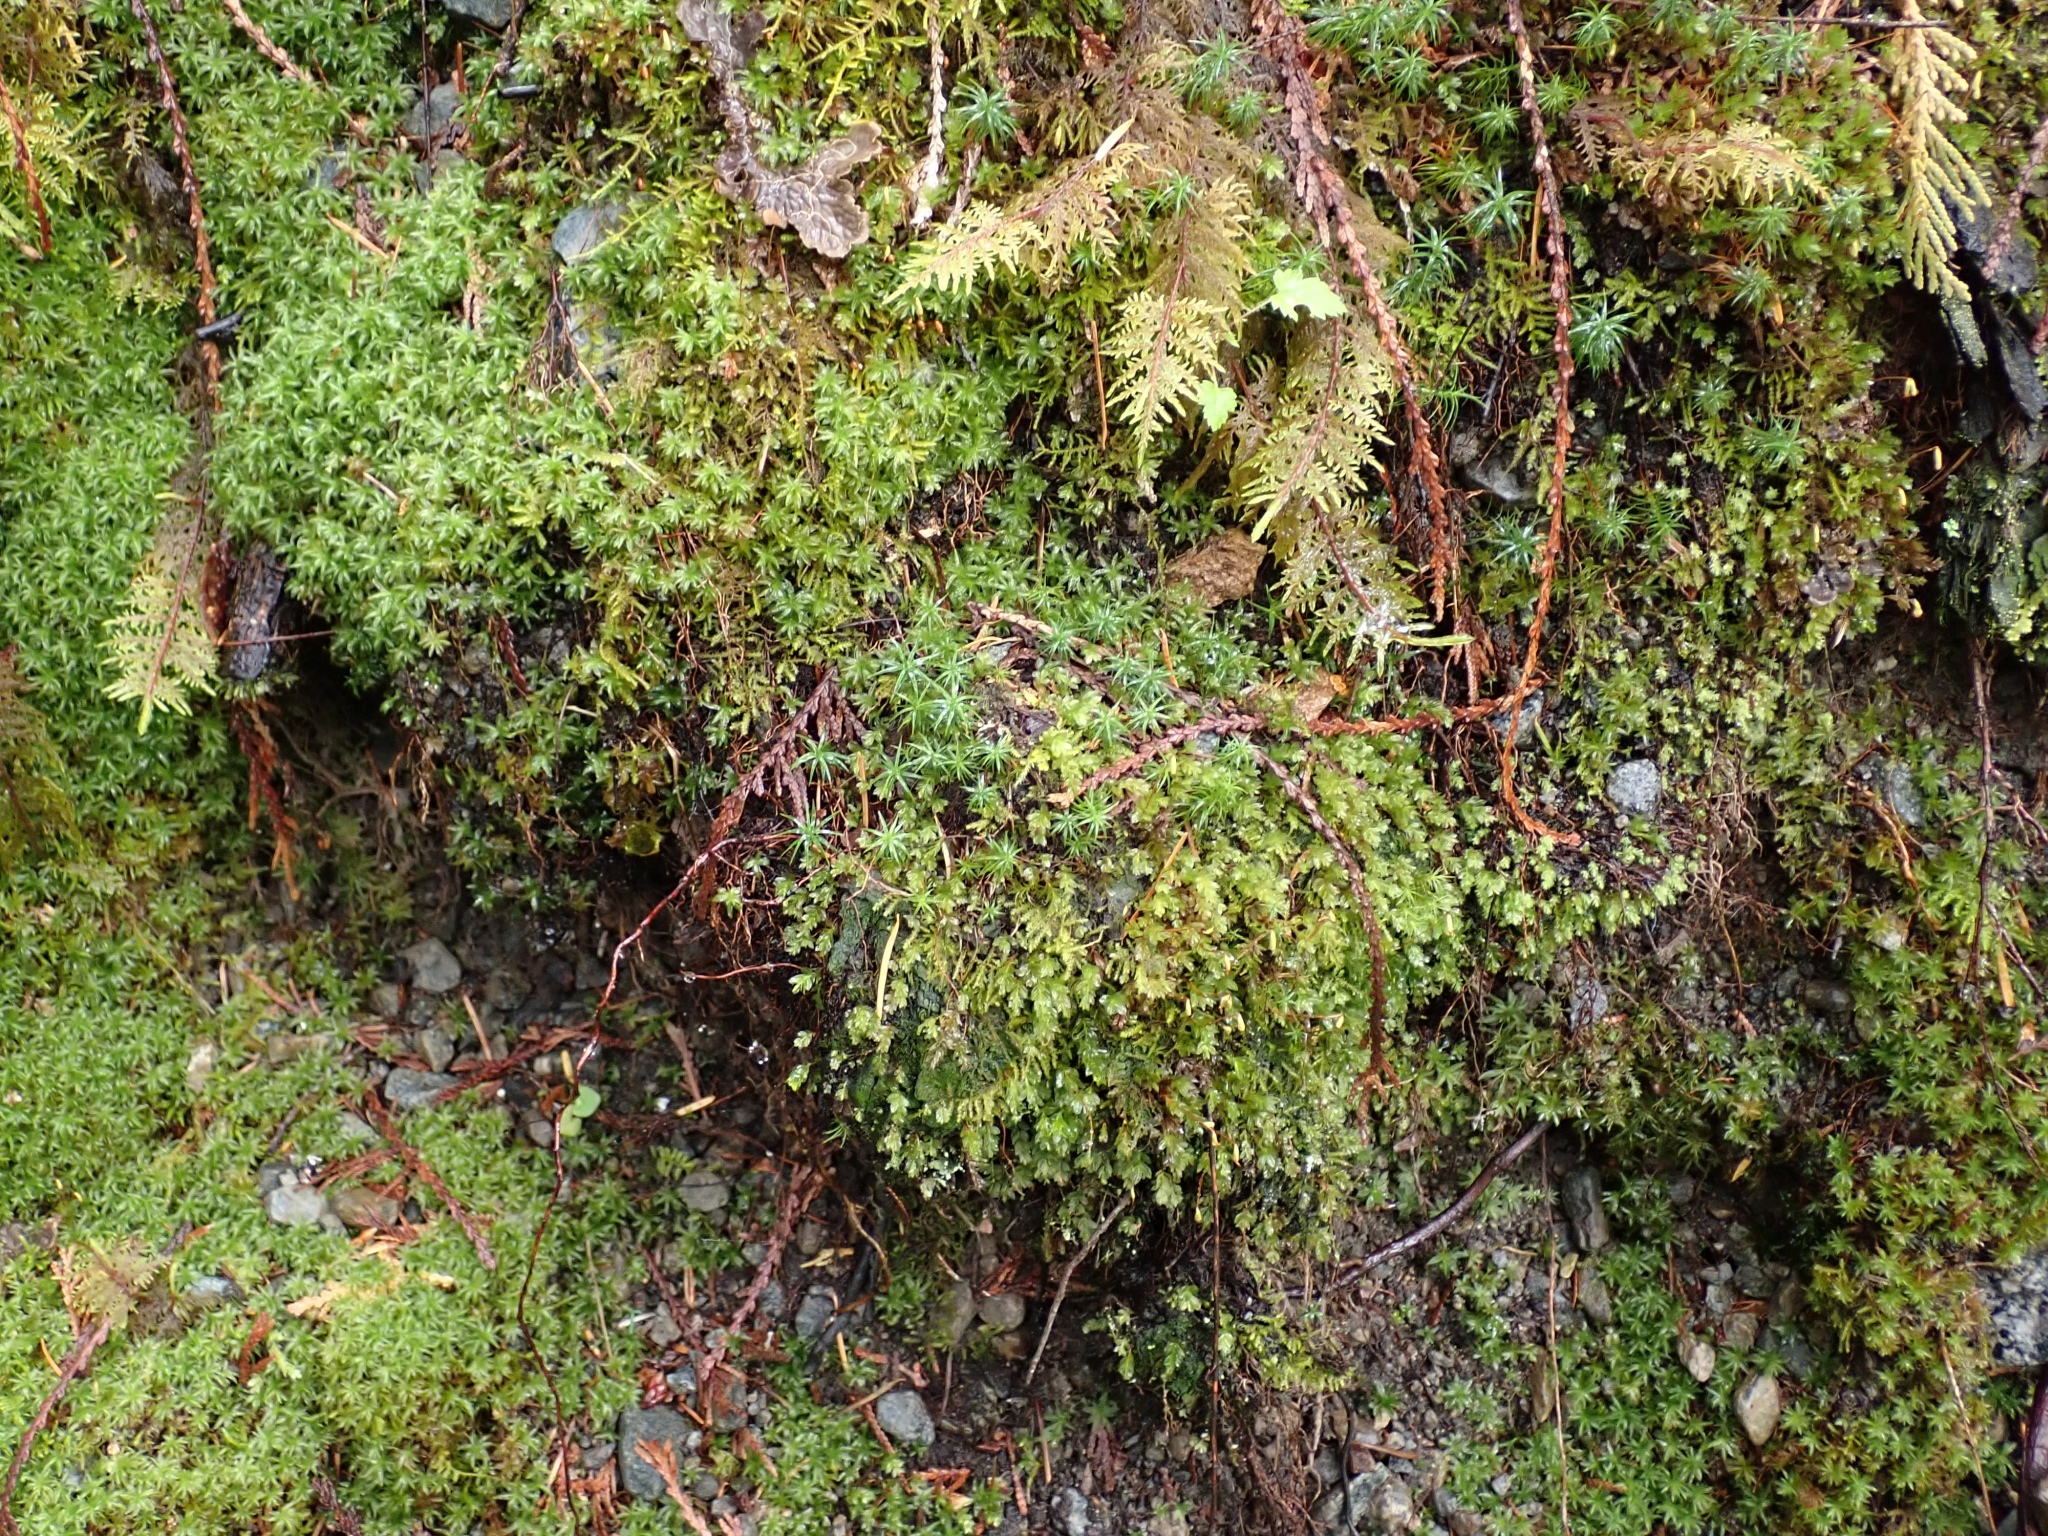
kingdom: Plantae
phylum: Bryophyta
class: Polytrichopsida
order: Polytrichales
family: Polytrichaceae
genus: Polytrichastrum
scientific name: Polytrichastrum alpinum
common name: Alpine haircap
